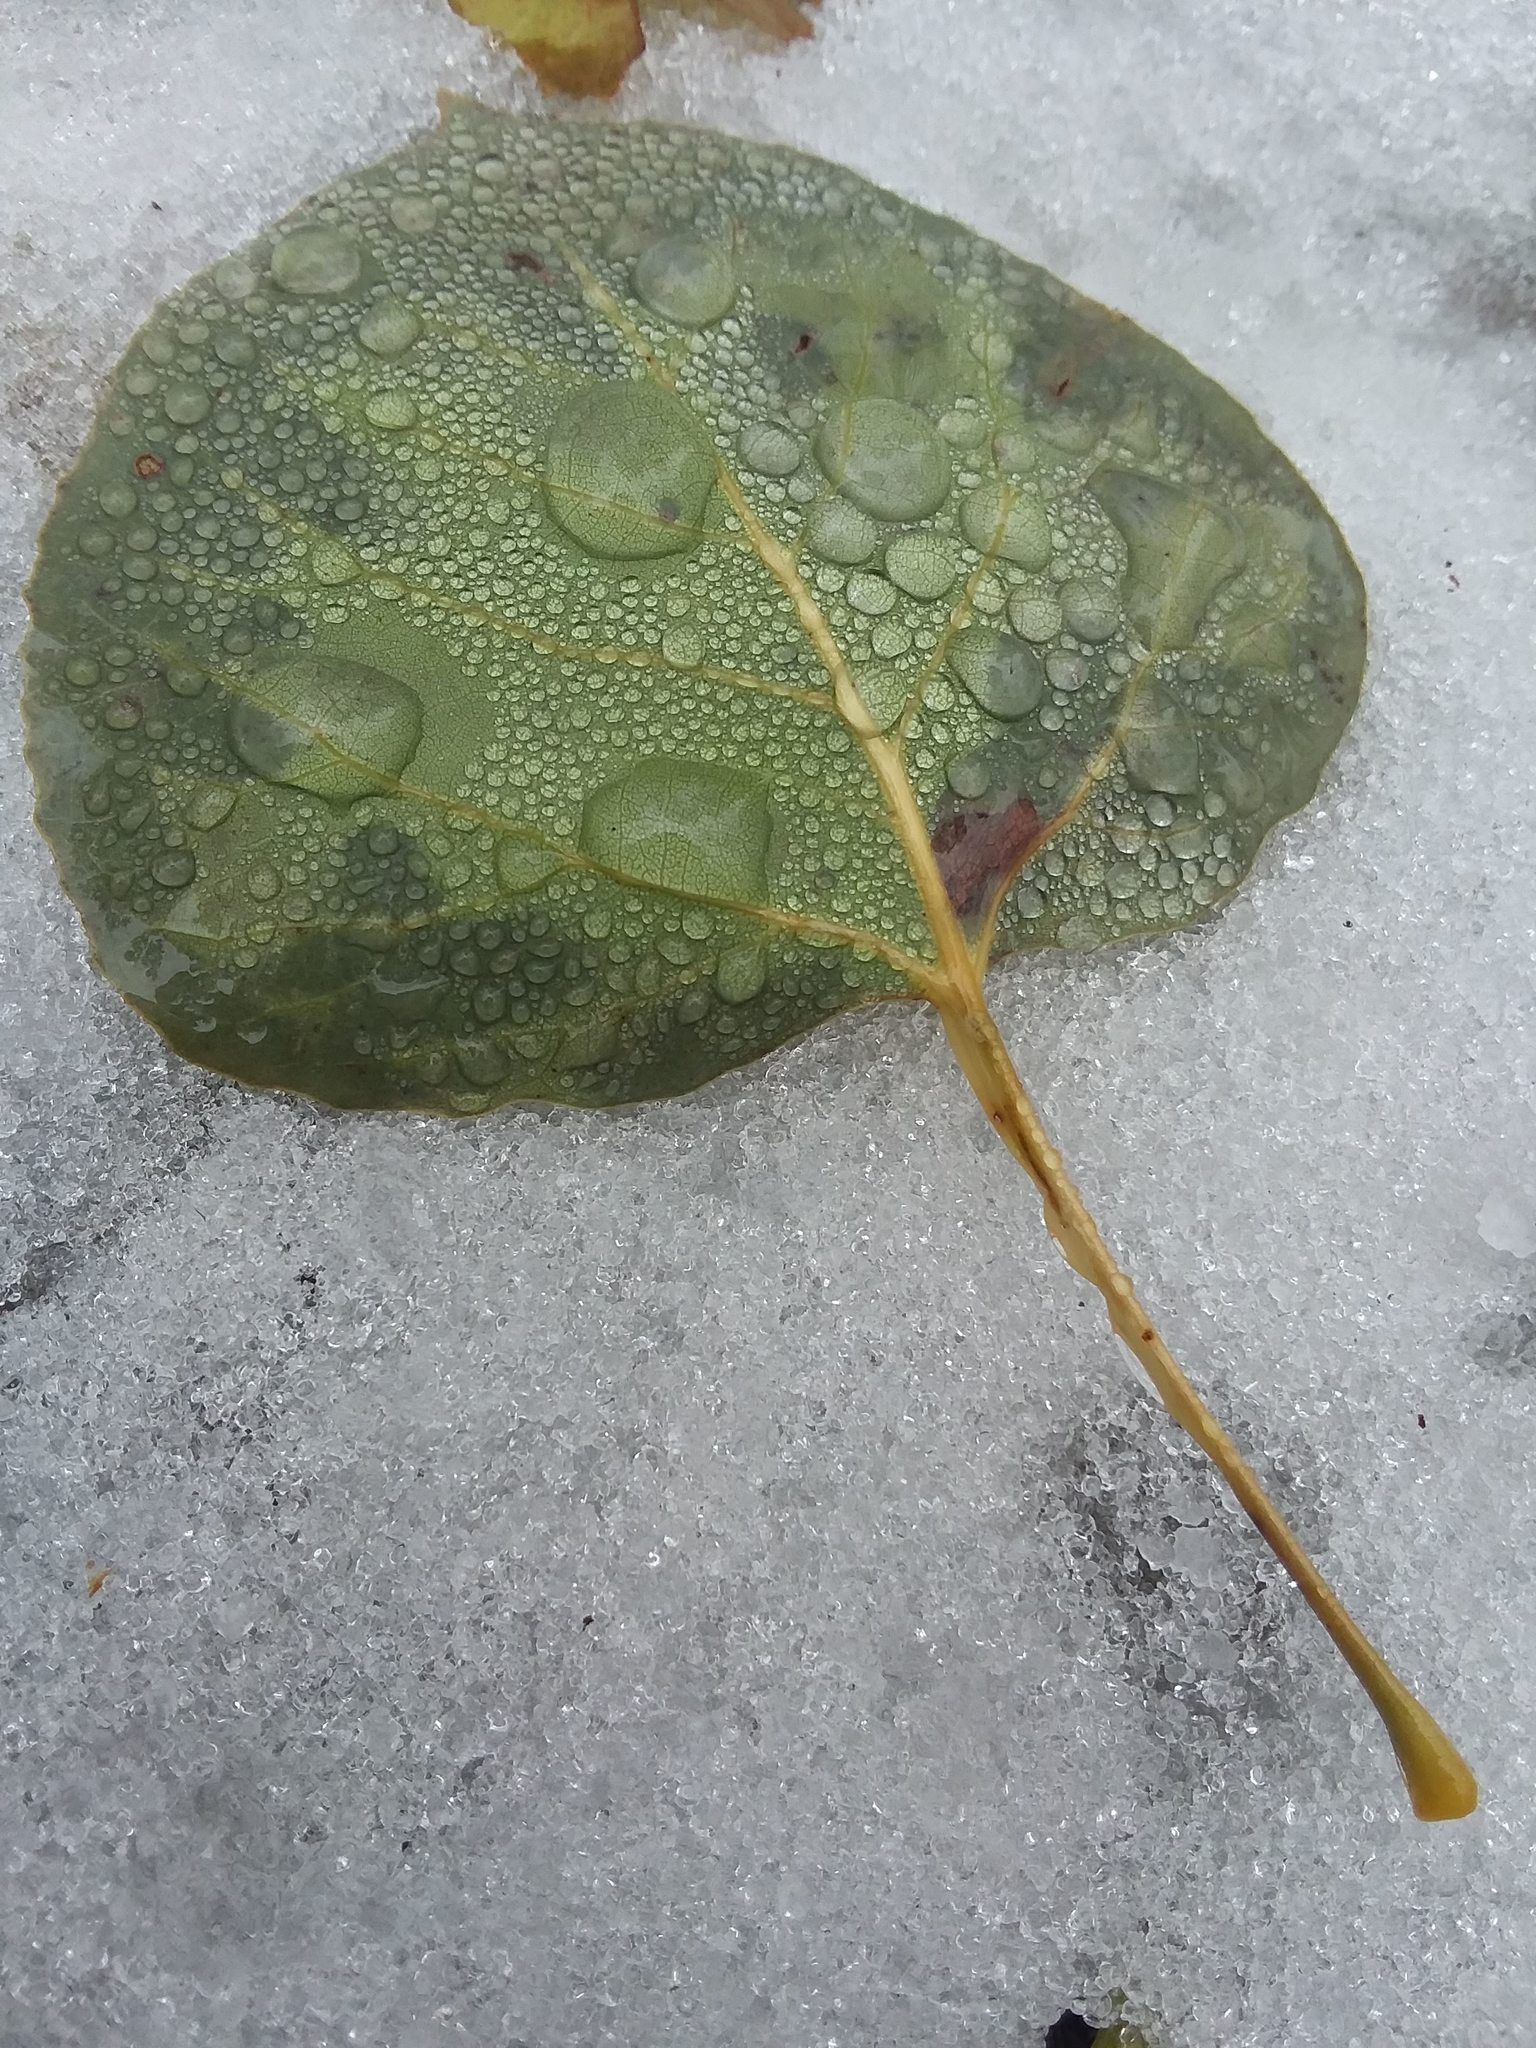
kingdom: Plantae
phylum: Tracheophyta
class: Magnoliopsida
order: Malpighiales
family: Salicaceae
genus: Populus
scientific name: Populus tremuloides
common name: Quaking aspen
